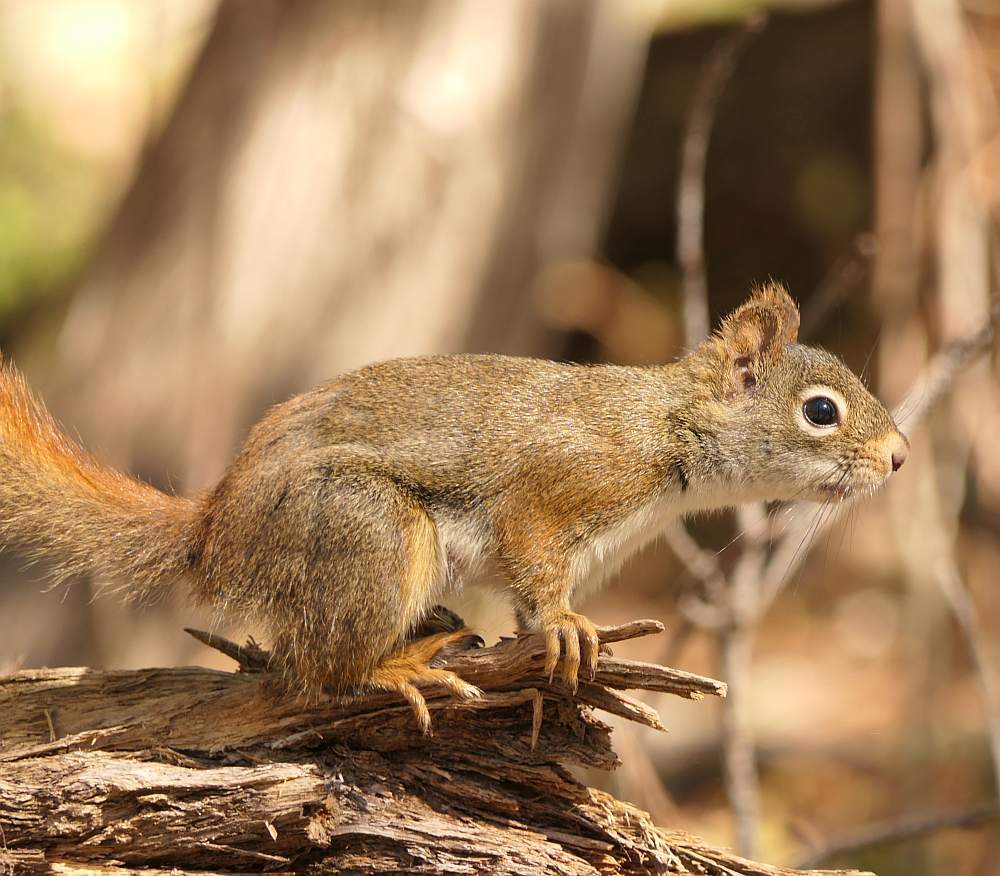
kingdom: Animalia
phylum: Chordata
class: Mammalia
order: Rodentia
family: Sciuridae
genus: Tamiasciurus
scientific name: Tamiasciurus hudsonicus
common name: Red squirrel
